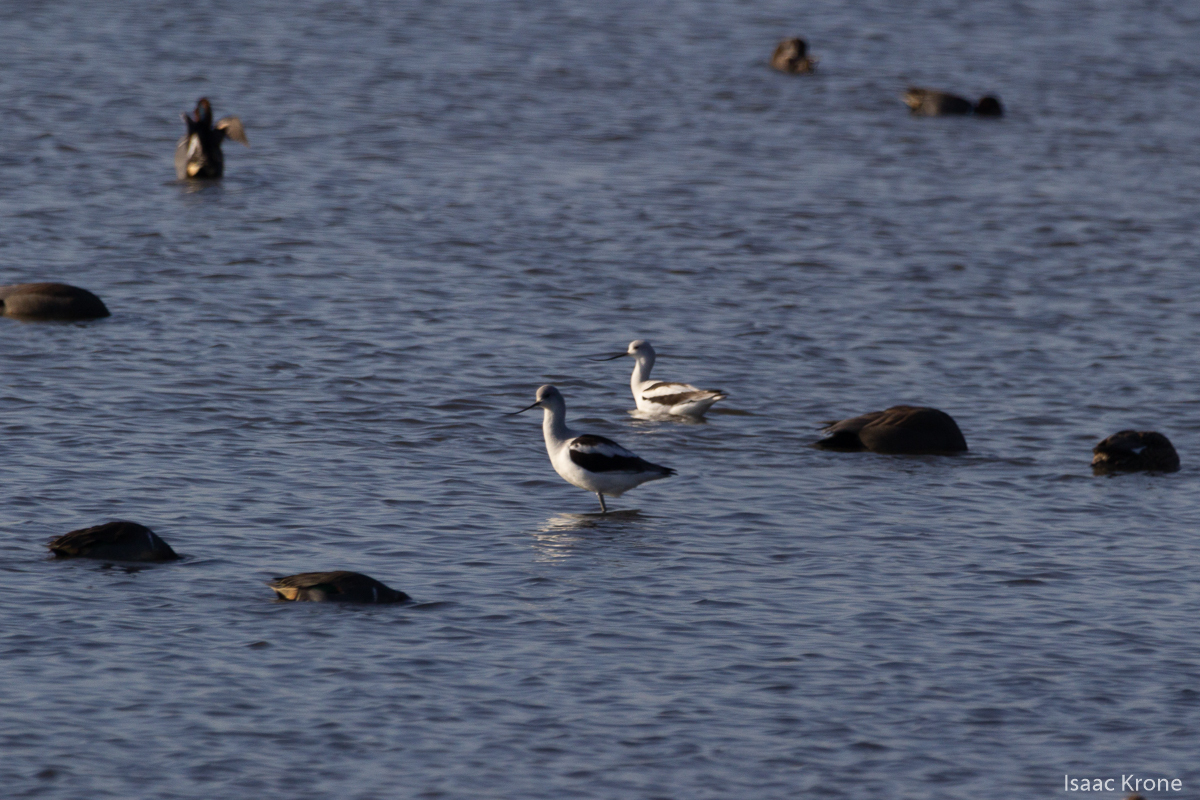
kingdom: Animalia
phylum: Chordata
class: Aves
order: Charadriiformes
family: Recurvirostridae
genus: Recurvirostra
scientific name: Recurvirostra americana
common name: American avocet
